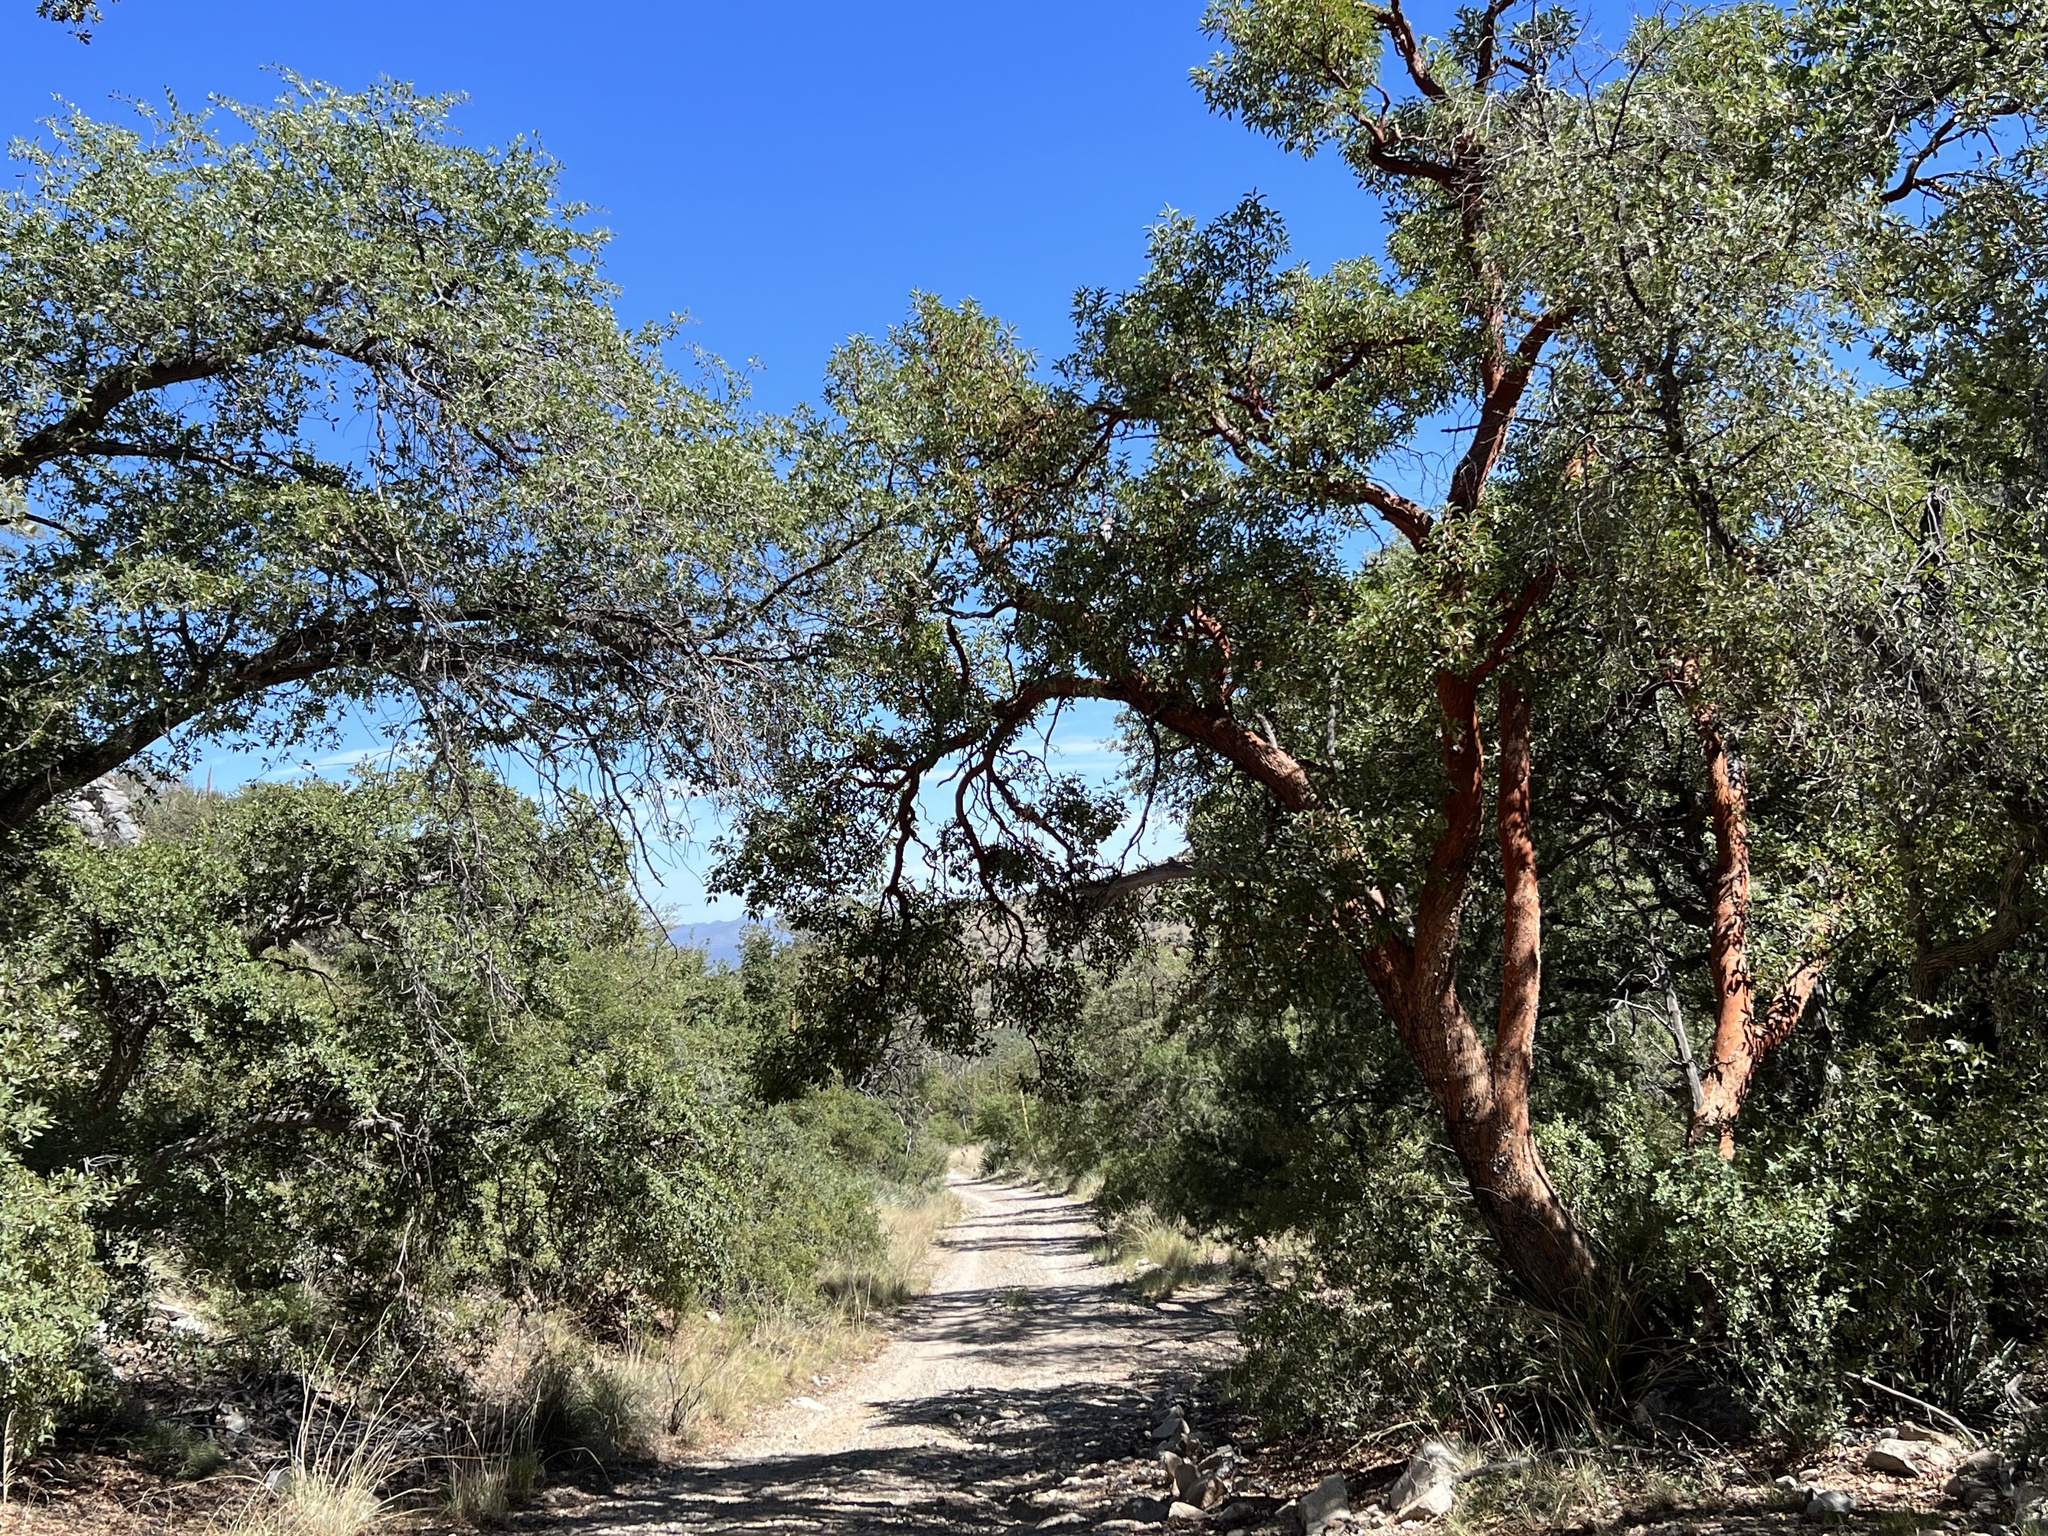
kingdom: Plantae
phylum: Tracheophyta
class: Magnoliopsida
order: Ericales
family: Ericaceae
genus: Arbutus
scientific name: Arbutus arizonica
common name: Arizona madrone
